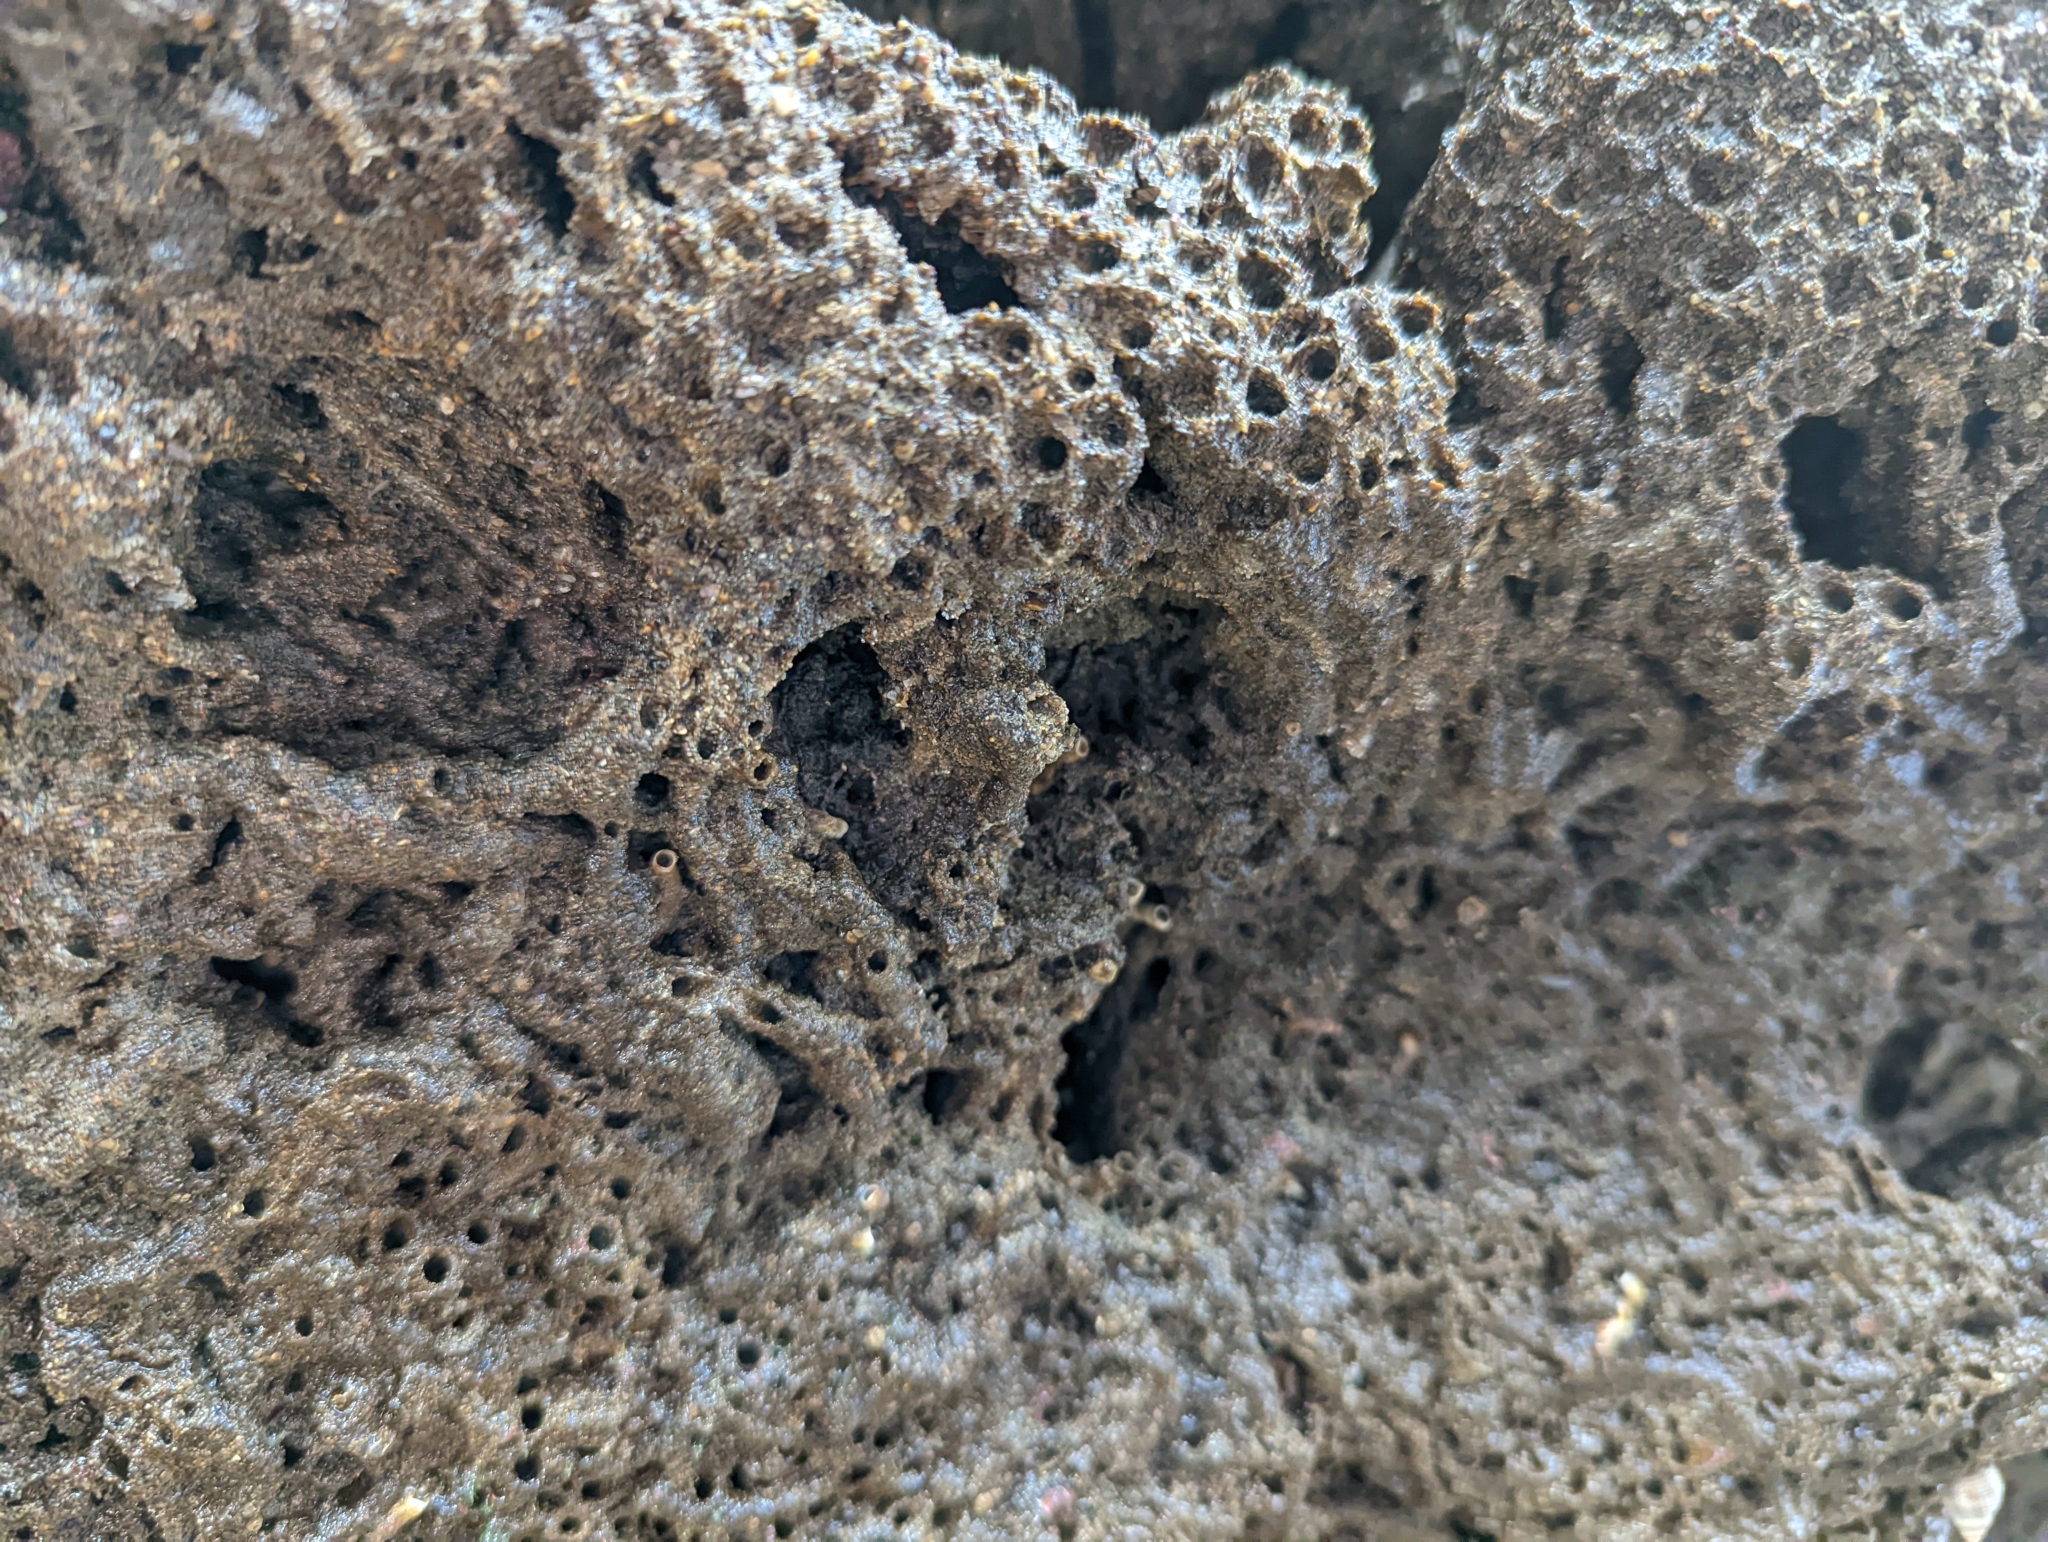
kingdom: Animalia
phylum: Annelida
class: Polychaeta
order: Sabellida
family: Sabellariidae
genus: Phragmatopoma
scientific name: Phragmatopoma californica
